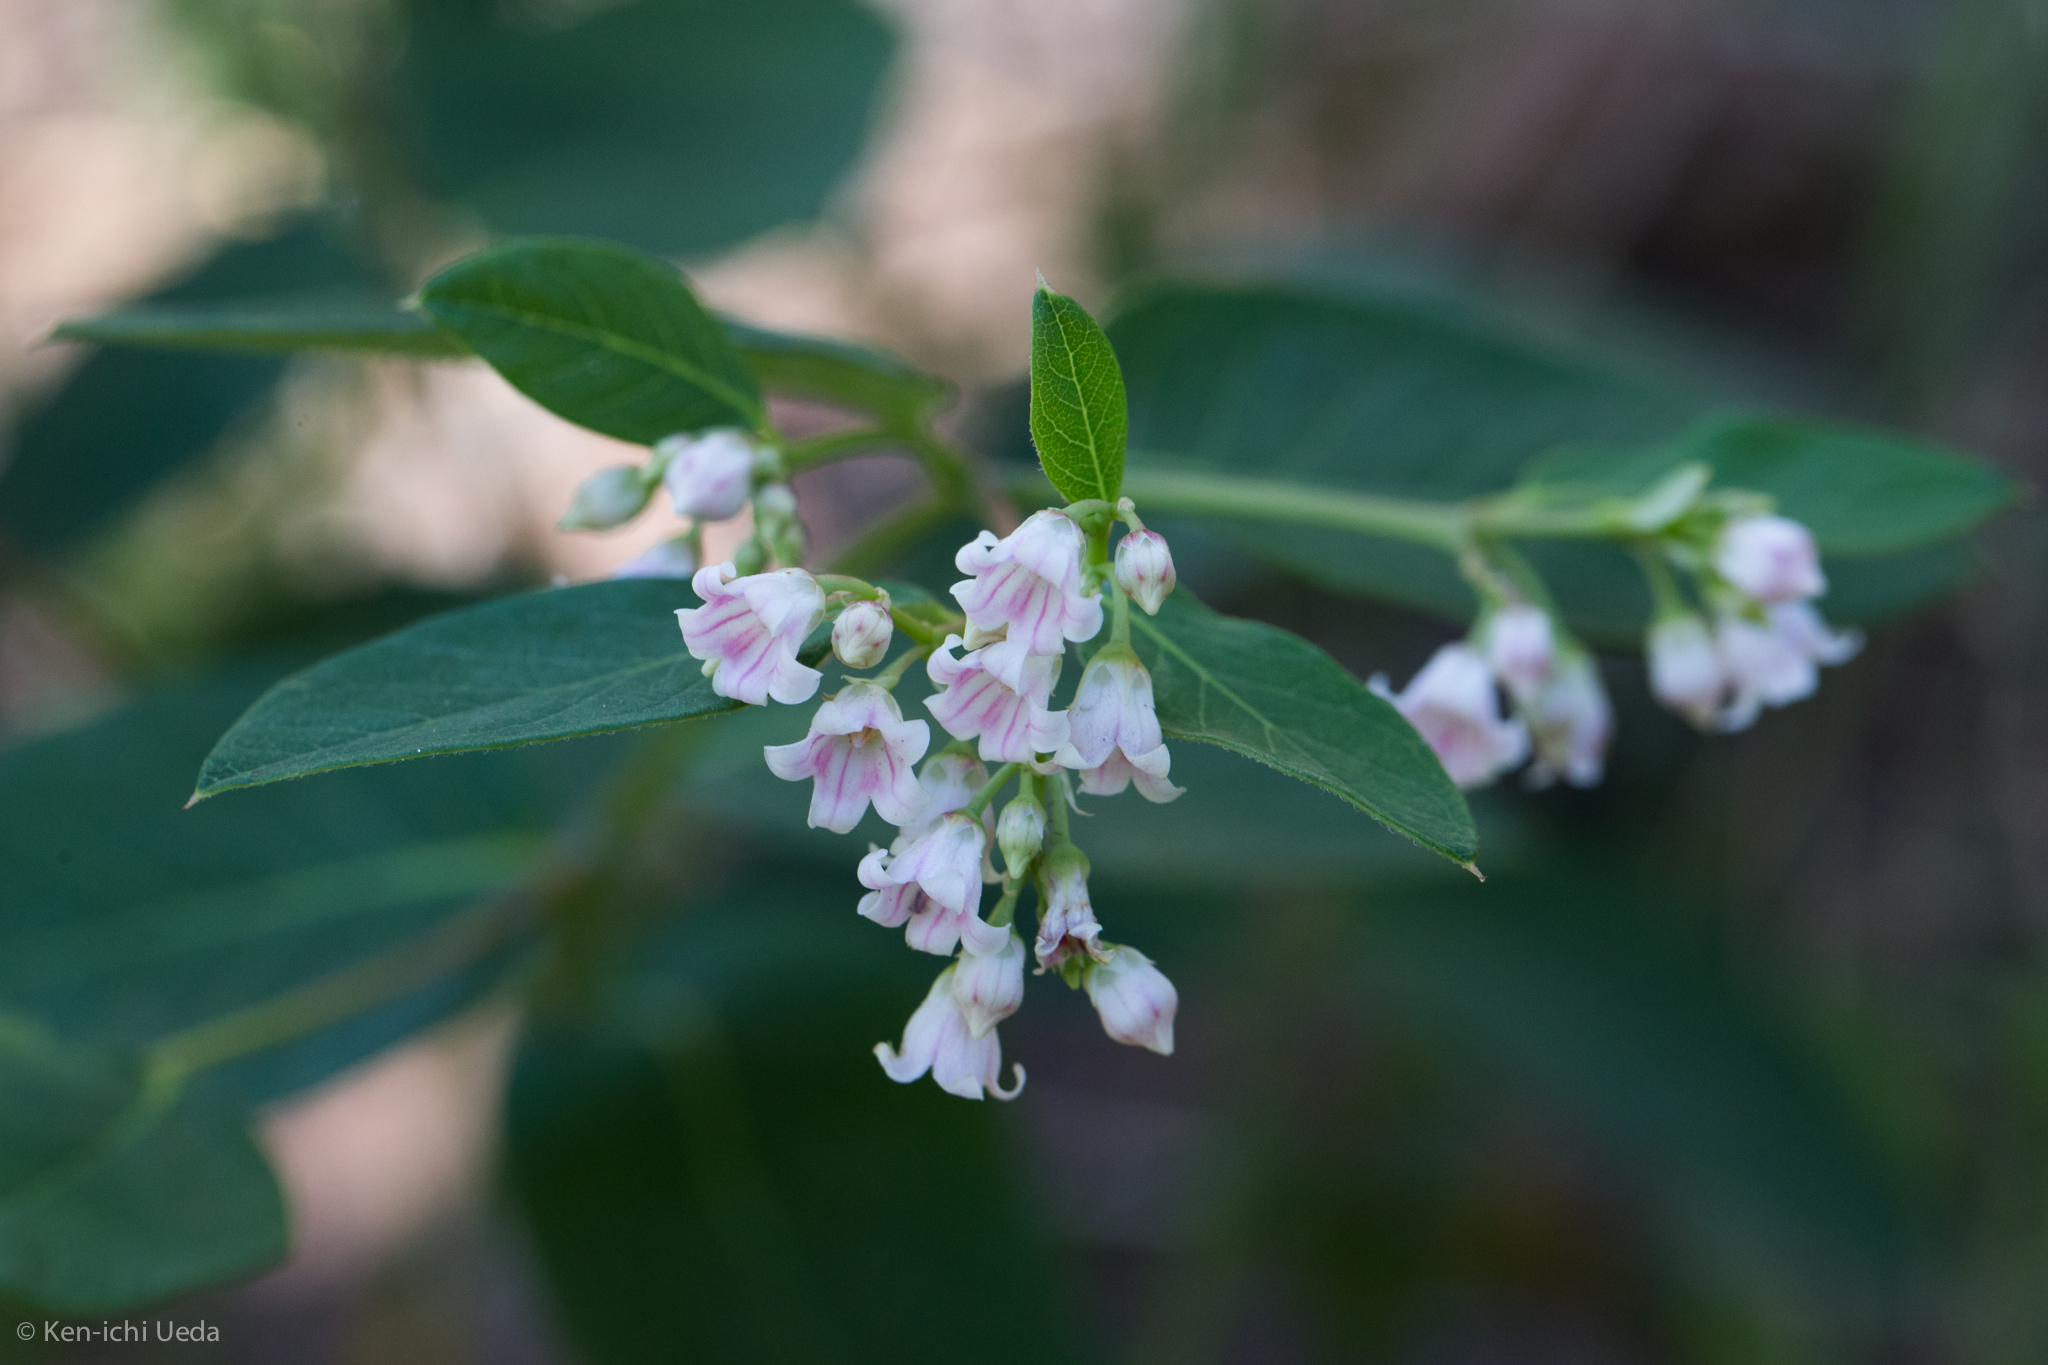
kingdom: Plantae
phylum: Tracheophyta
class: Magnoliopsida
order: Gentianales
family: Apocynaceae
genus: Apocynum
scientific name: Apocynum androsaemifolium
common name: Spreading dogbane
